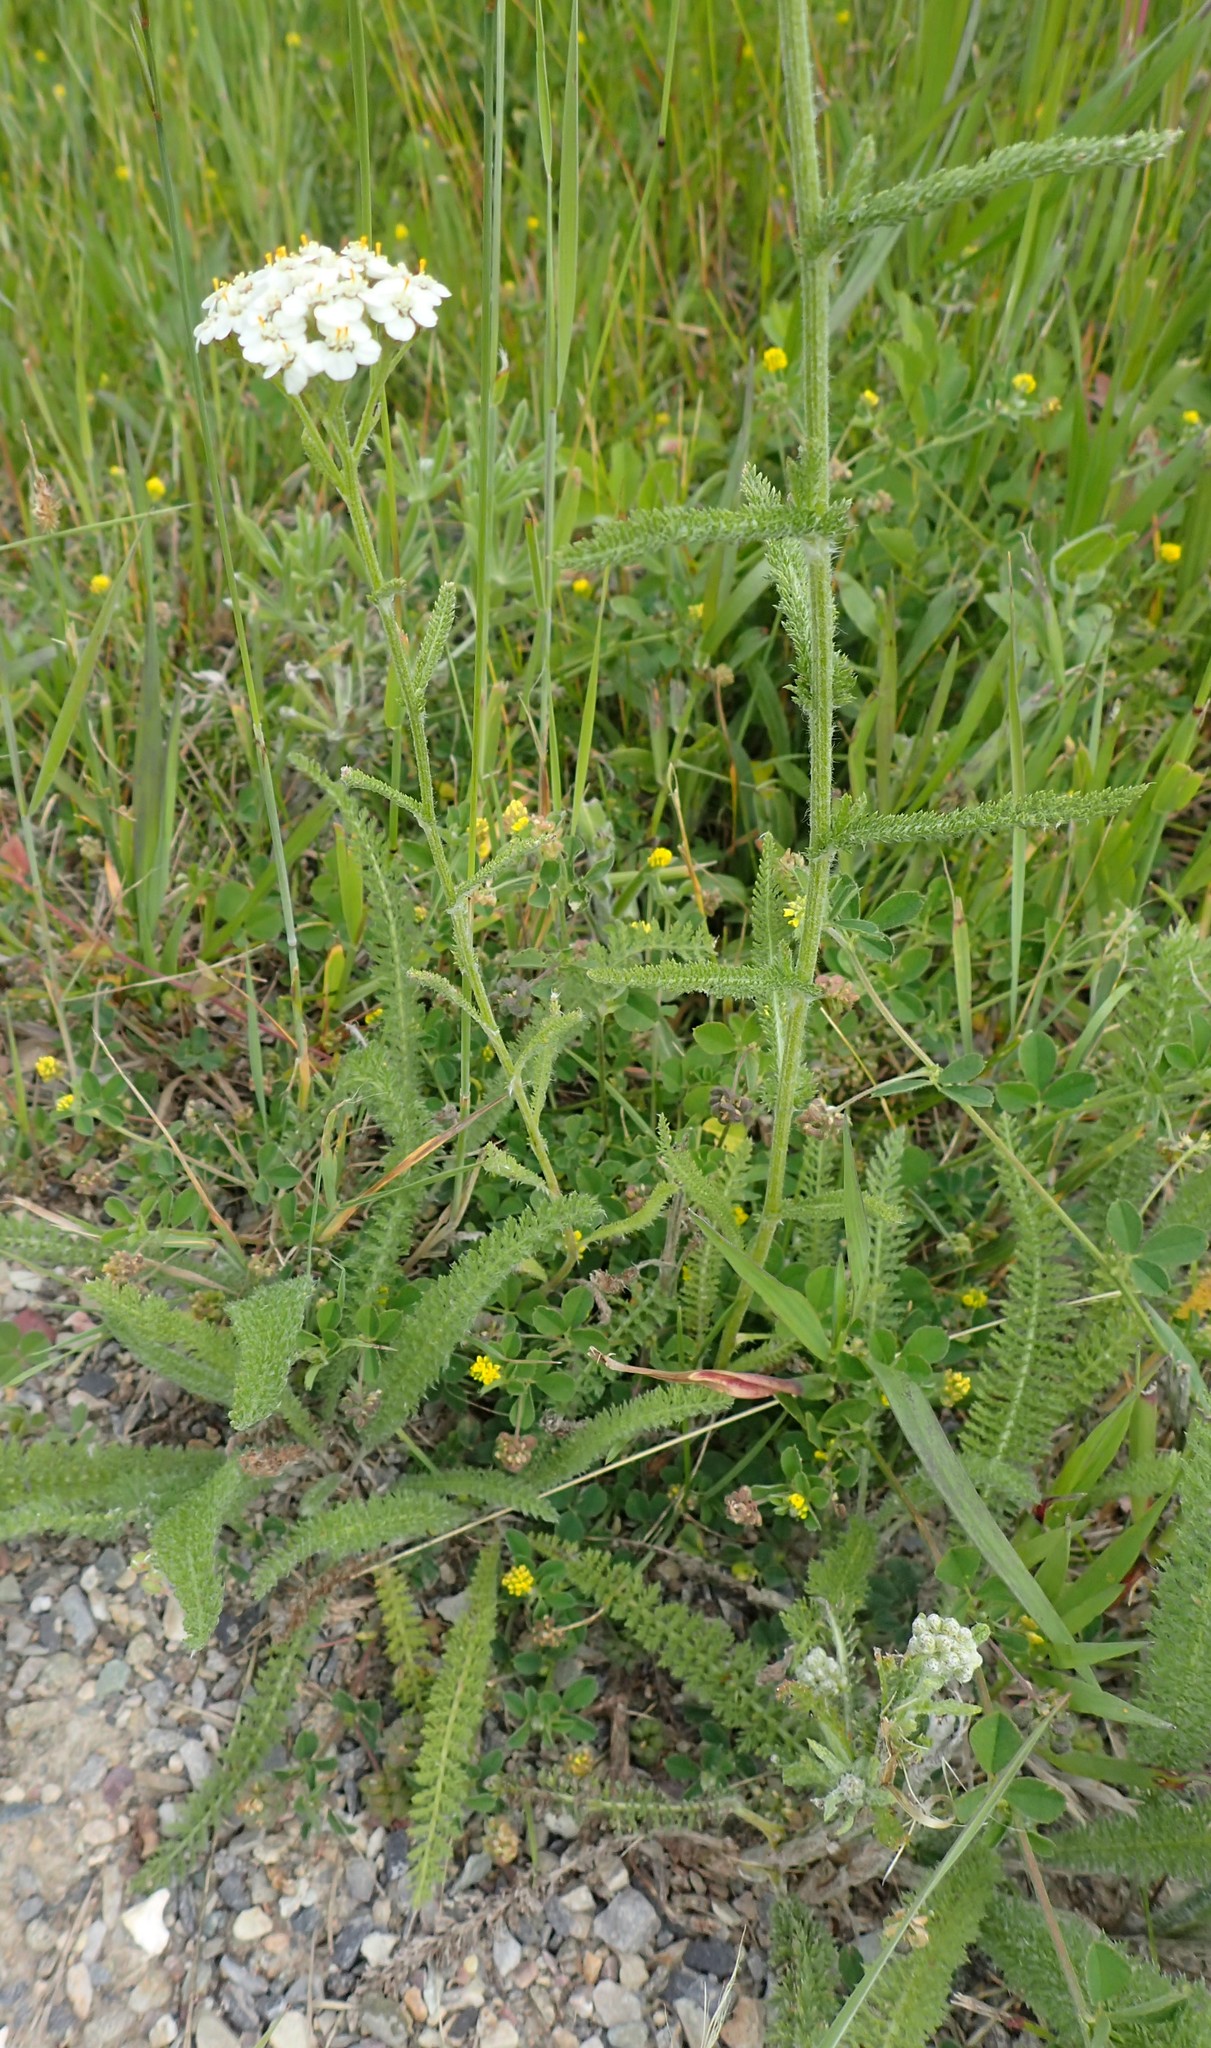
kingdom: Plantae
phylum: Tracheophyta
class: Magnoliopsida
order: Asterales
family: Asteraceae
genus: Achillea
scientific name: Achillea millefolium
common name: Yarrow
